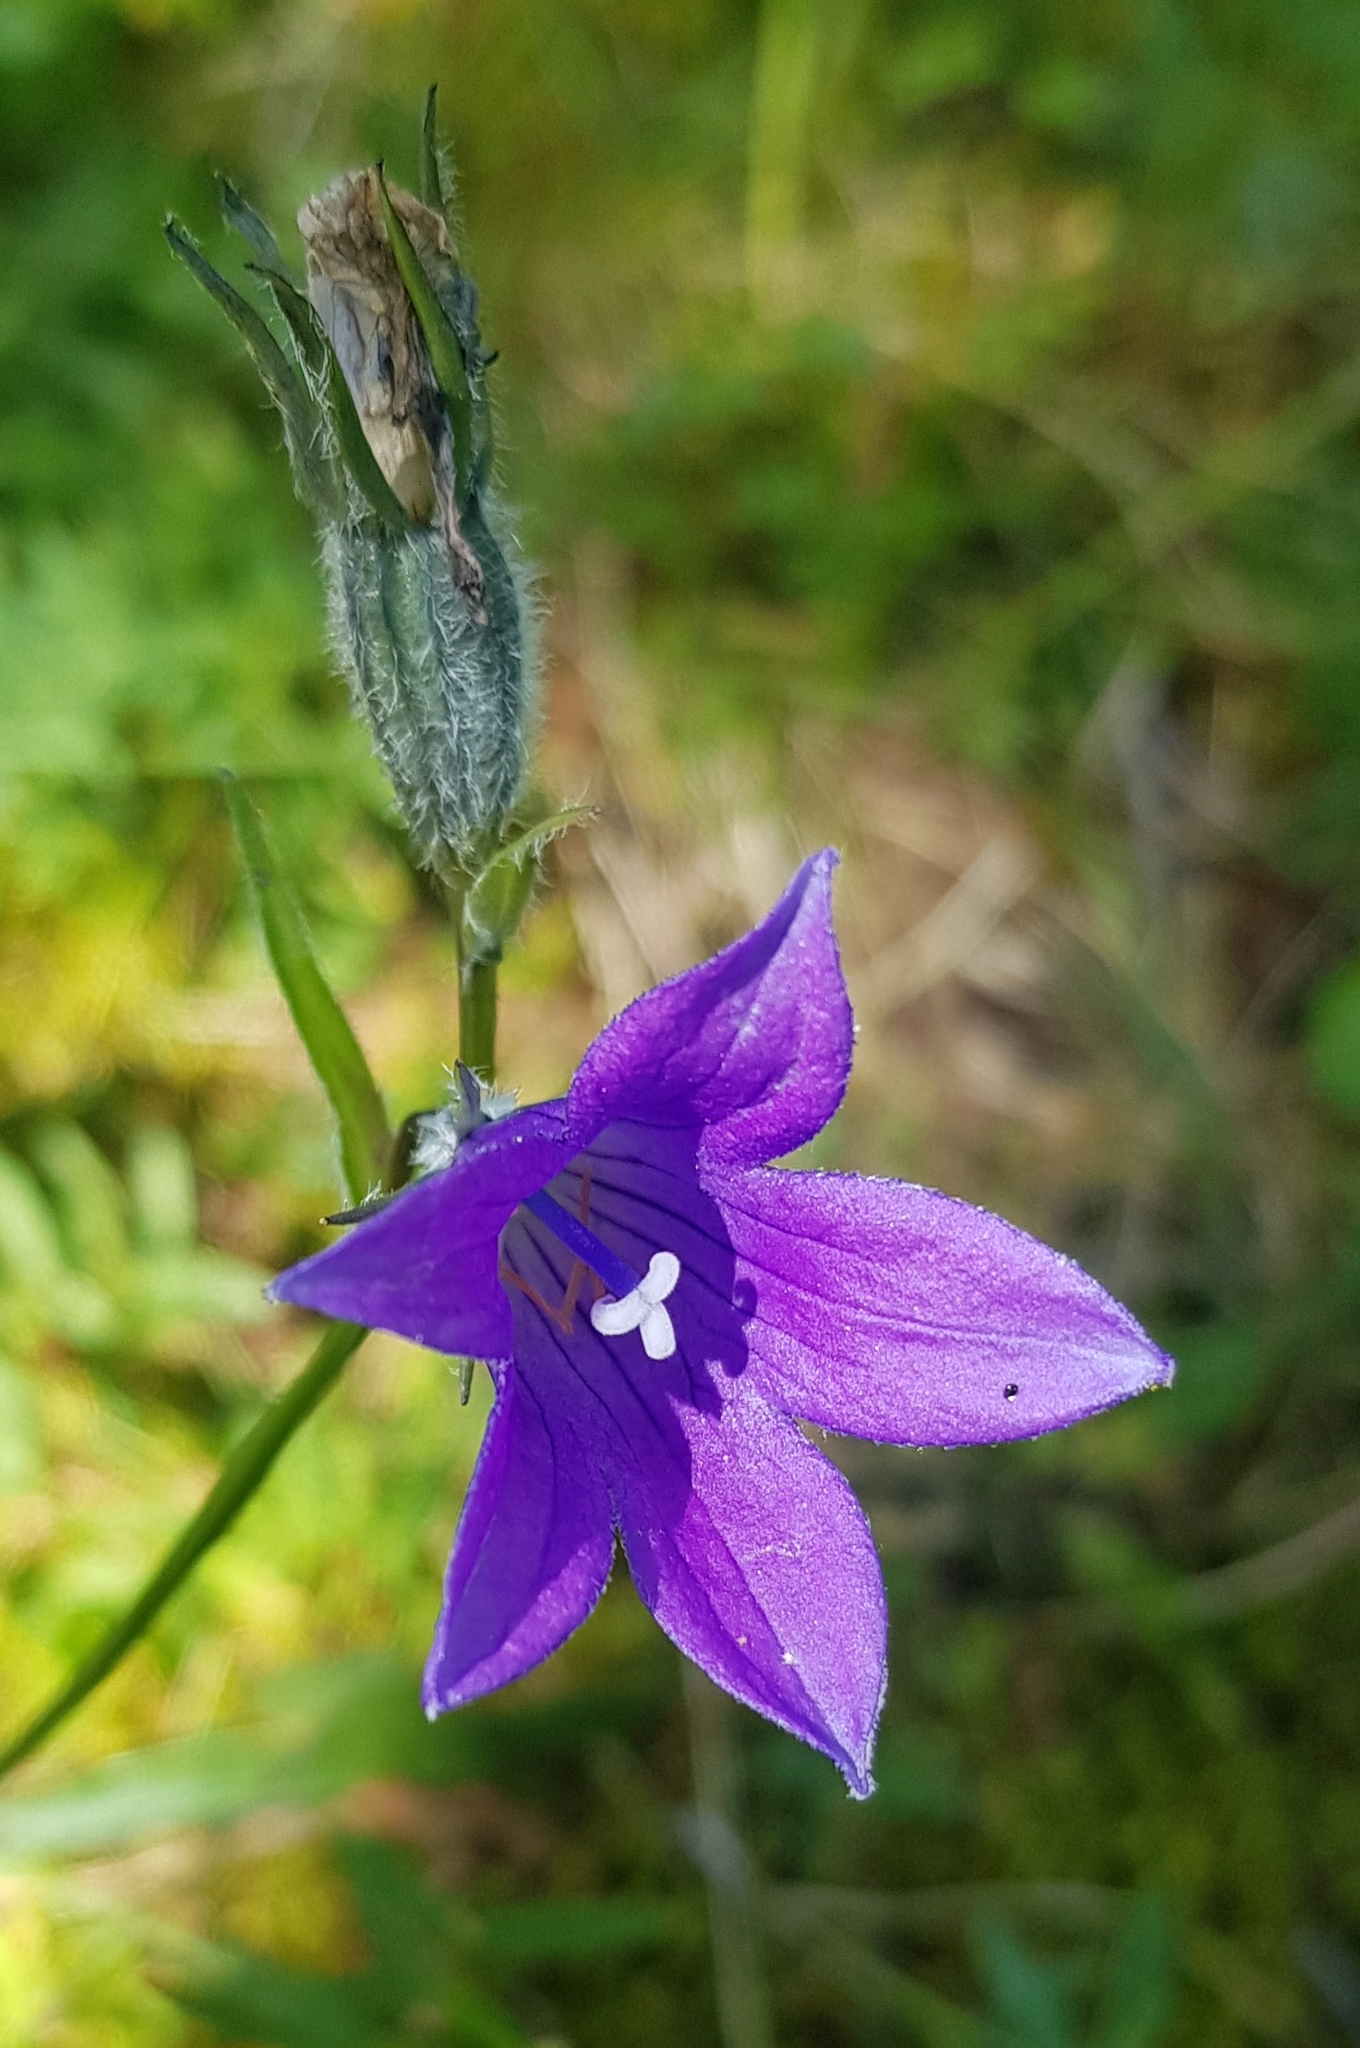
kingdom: Plantae
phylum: Tracheophyta
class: Magnoliopsida
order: Asterales
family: Campanulaceae
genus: Campanula
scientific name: Campanula stevenii
